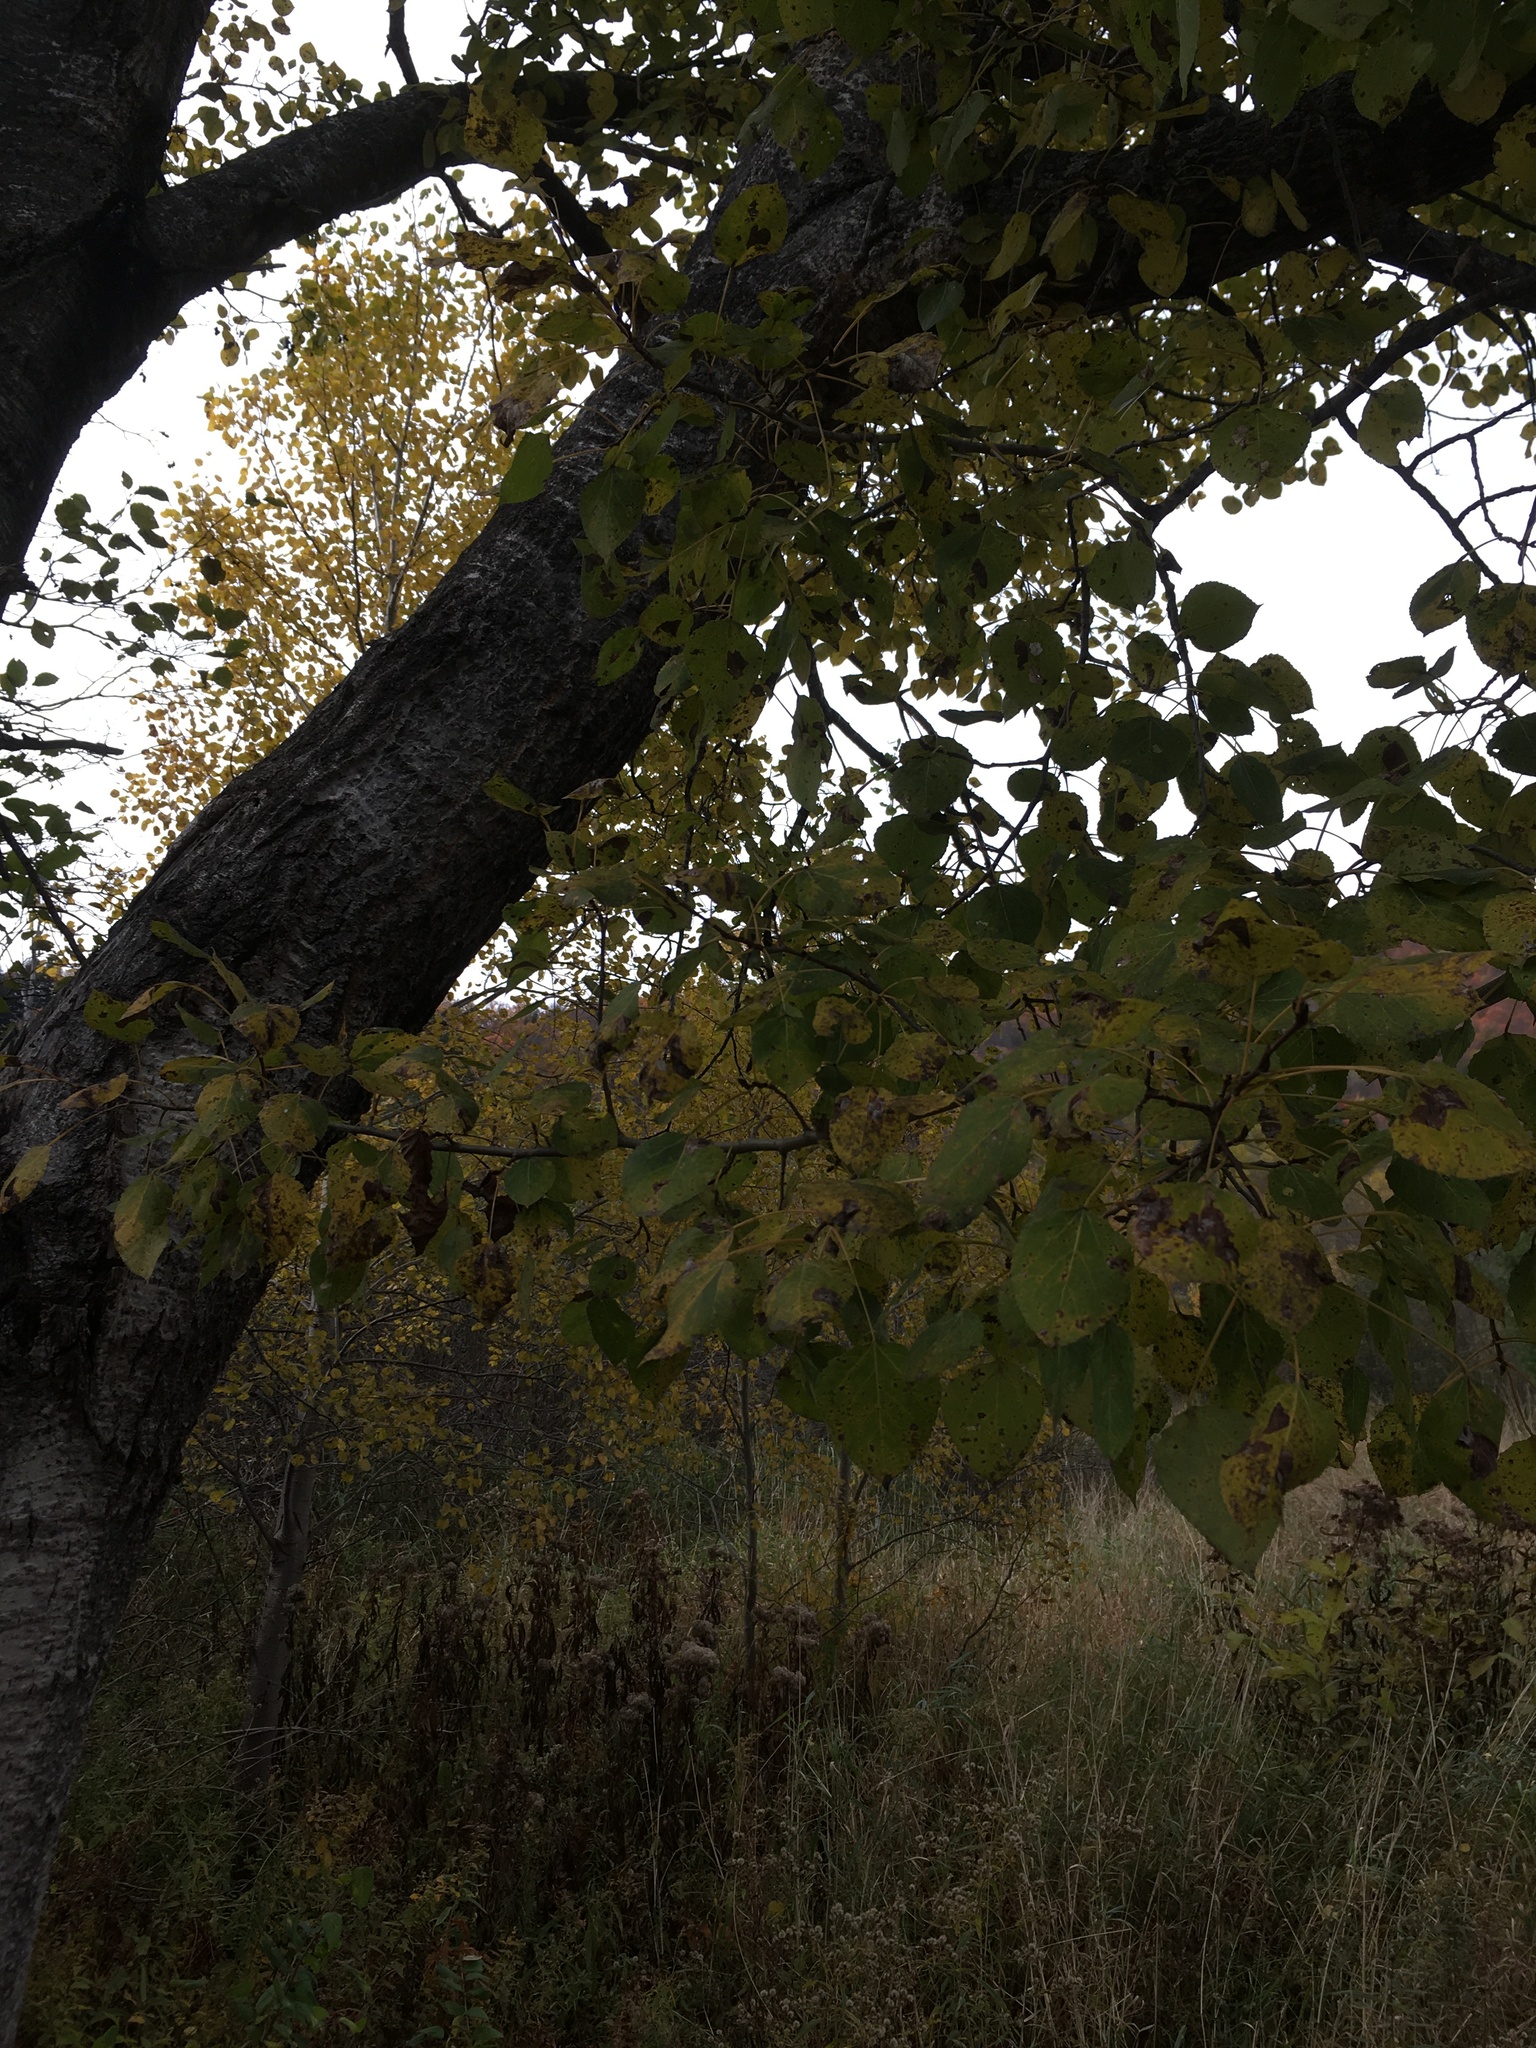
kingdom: Plantae
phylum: Tracheophyta
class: Magnoliopsida
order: Malpighiales
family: Salicaceae
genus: Populus
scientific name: Populus tremuloides
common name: Quaking aspen
